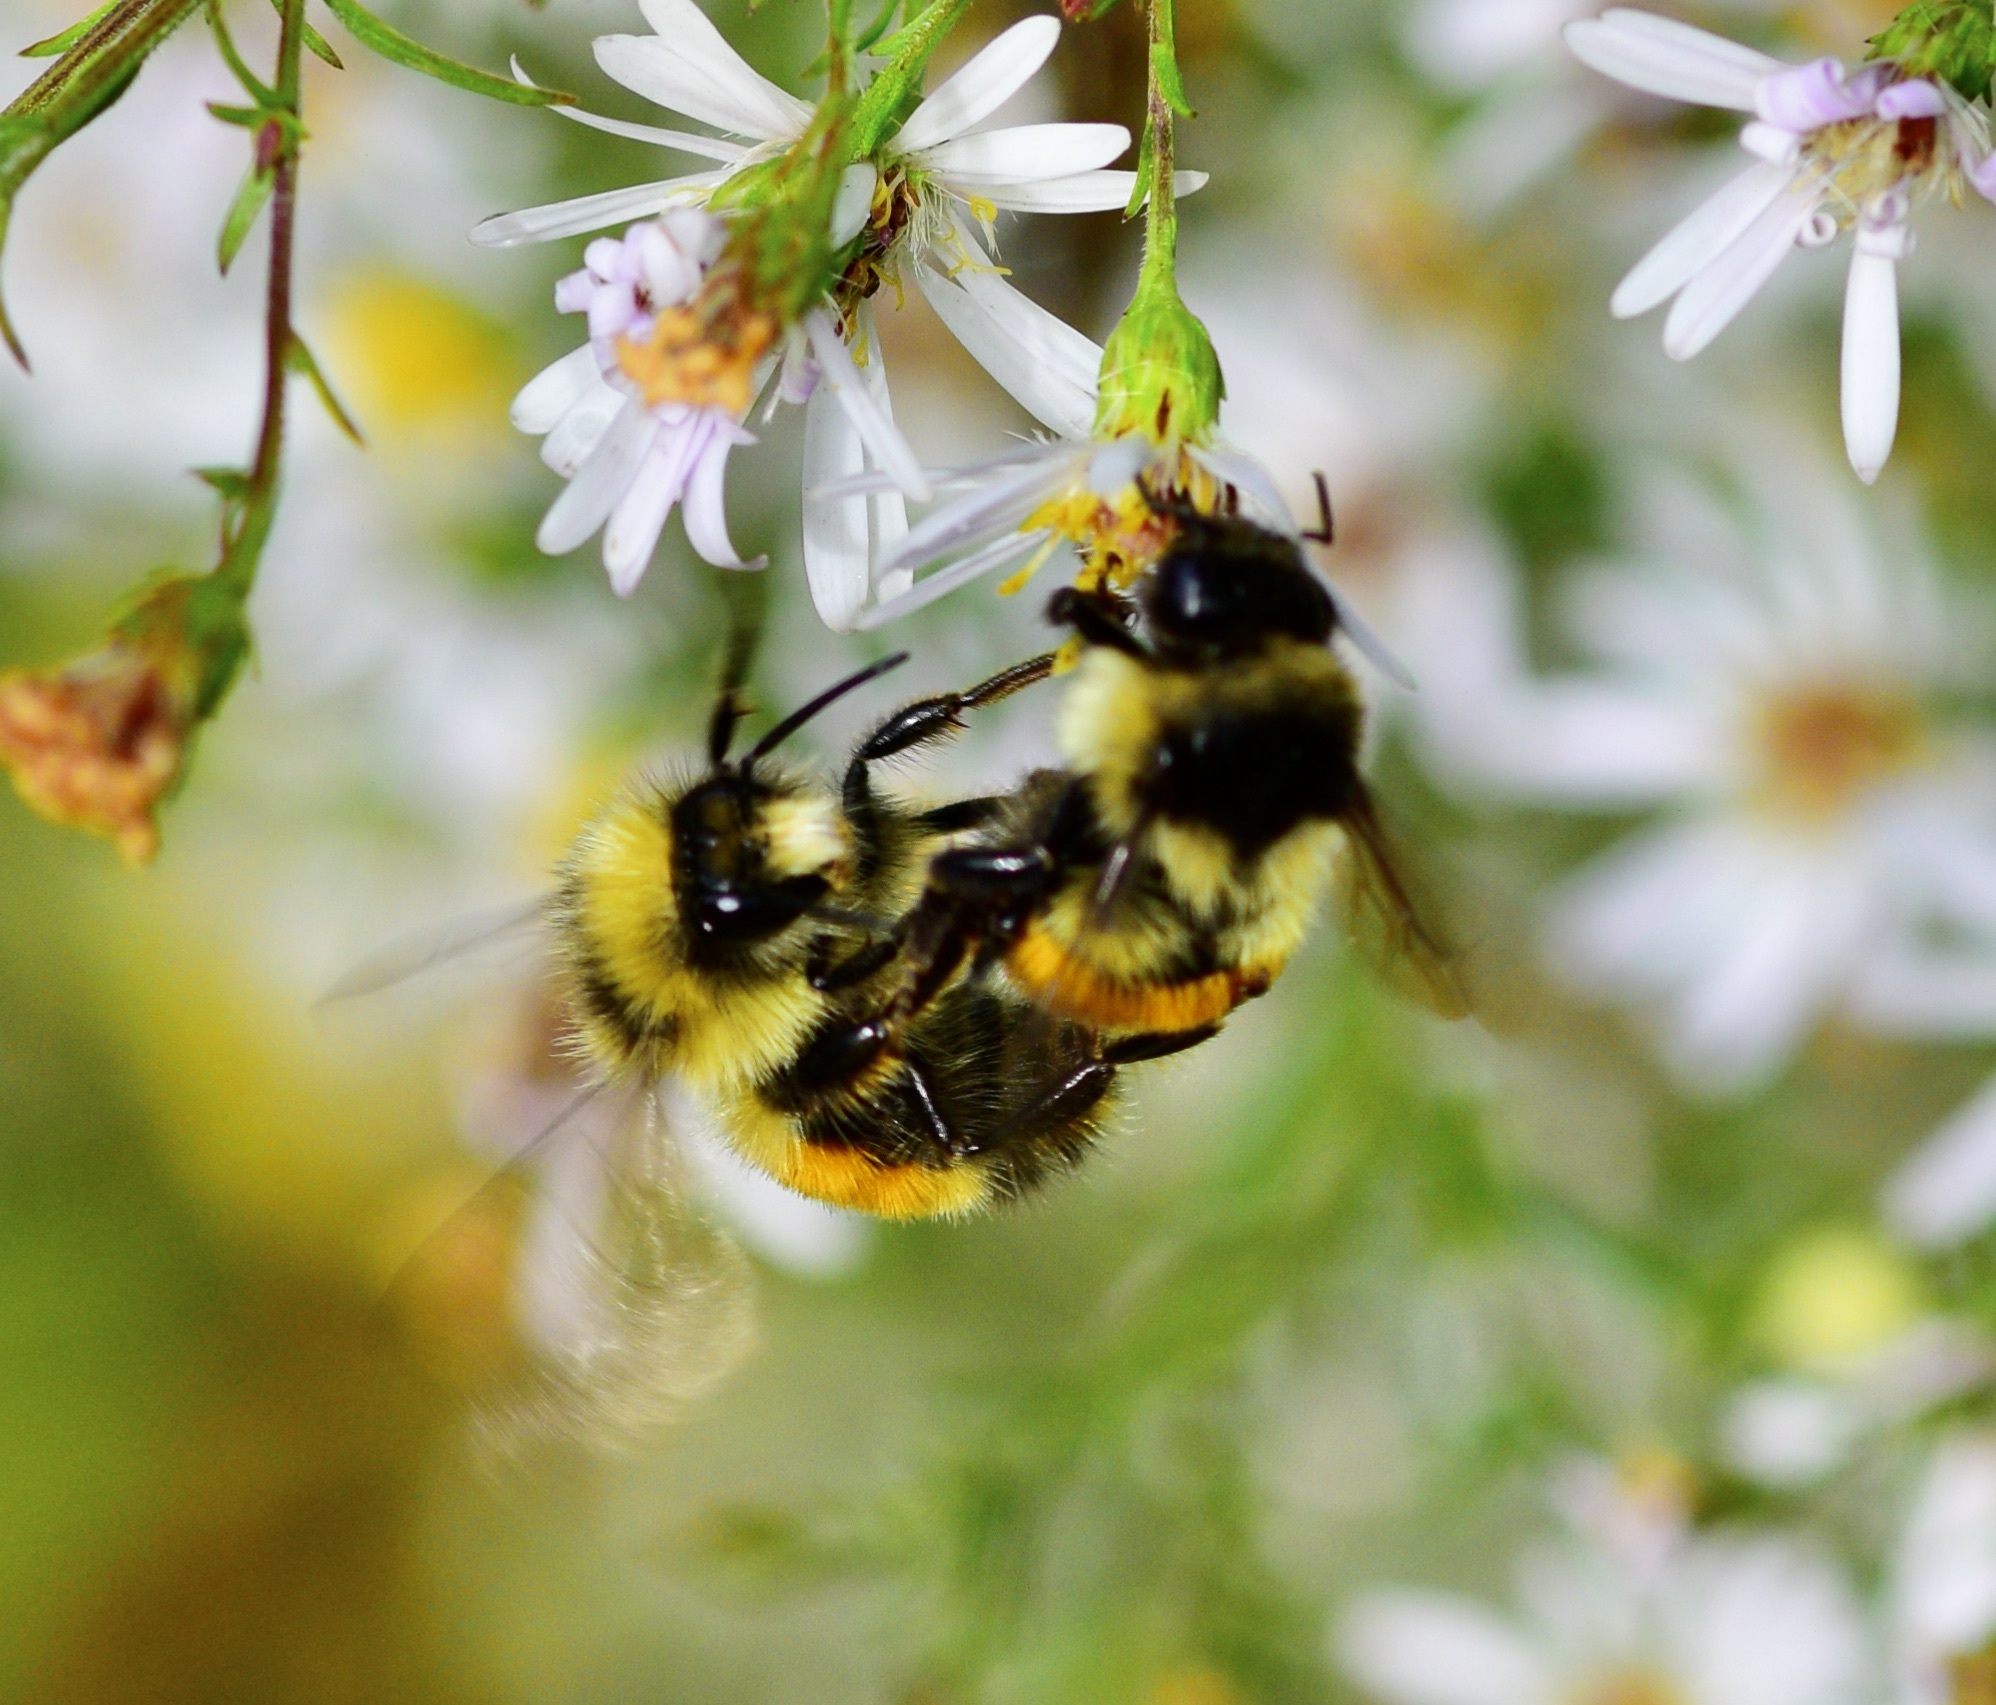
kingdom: Animalia
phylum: Arthropoda
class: Insecta
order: Hymenoptera
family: Apidae
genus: Bombus
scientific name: Bombus ternarius
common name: Tri-colored bumble bee
